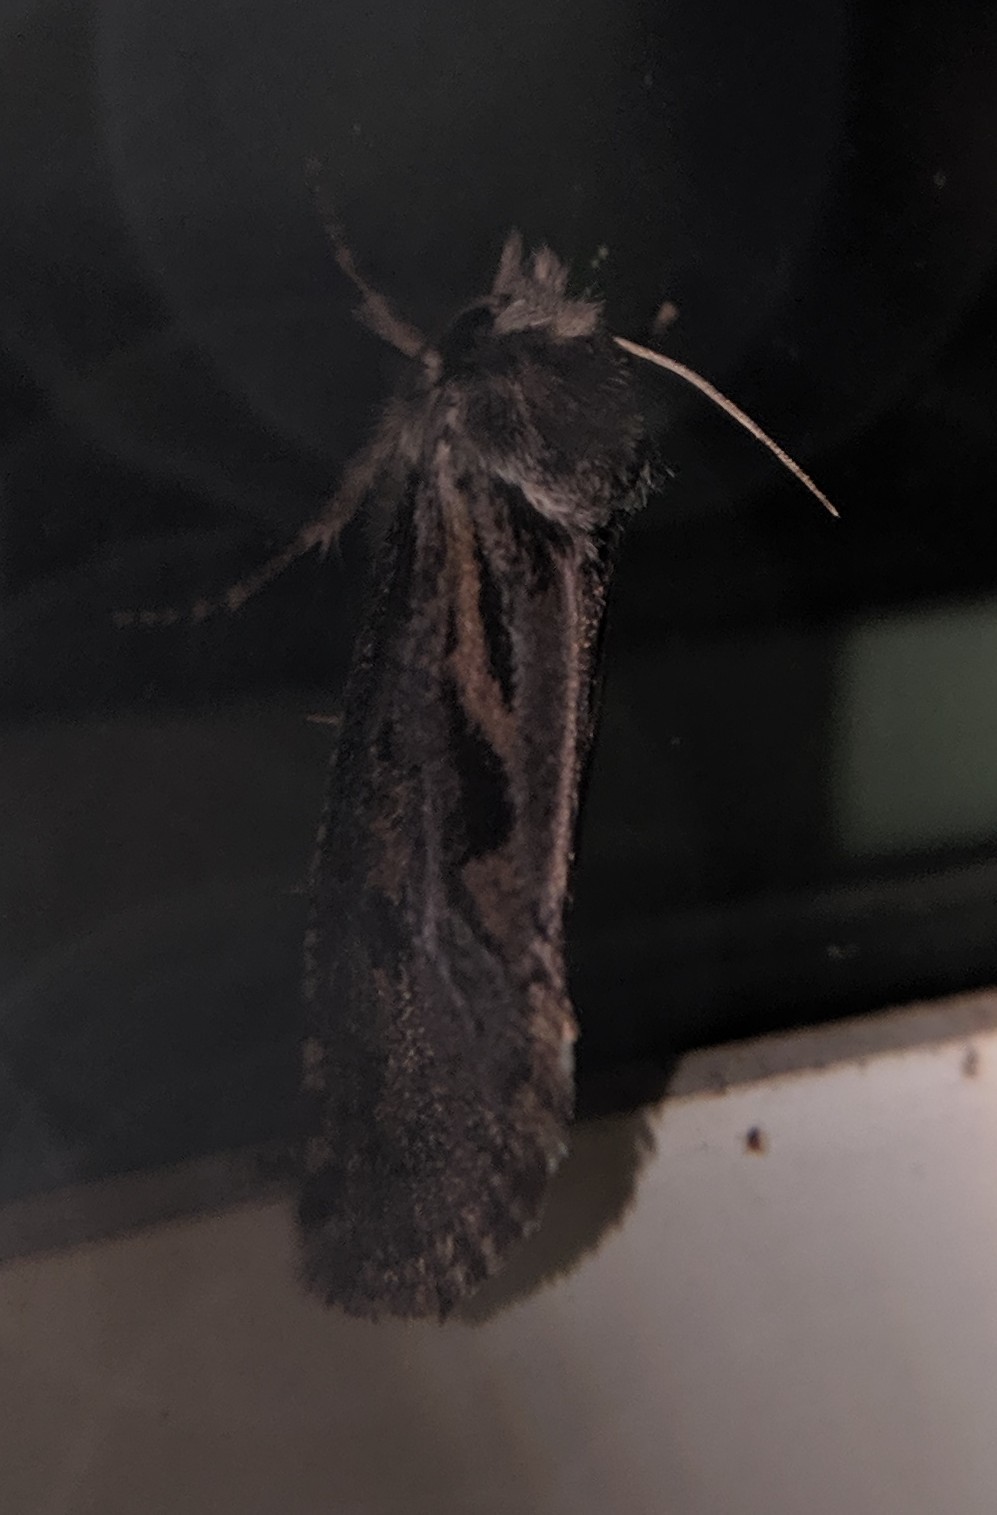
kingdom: Animalia
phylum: Arthropoda
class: Insecta
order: Lepidoptera
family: Tineidae
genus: Acrolophus
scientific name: Acrolophus popeanella
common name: Clemens' grass tubeworm moth
